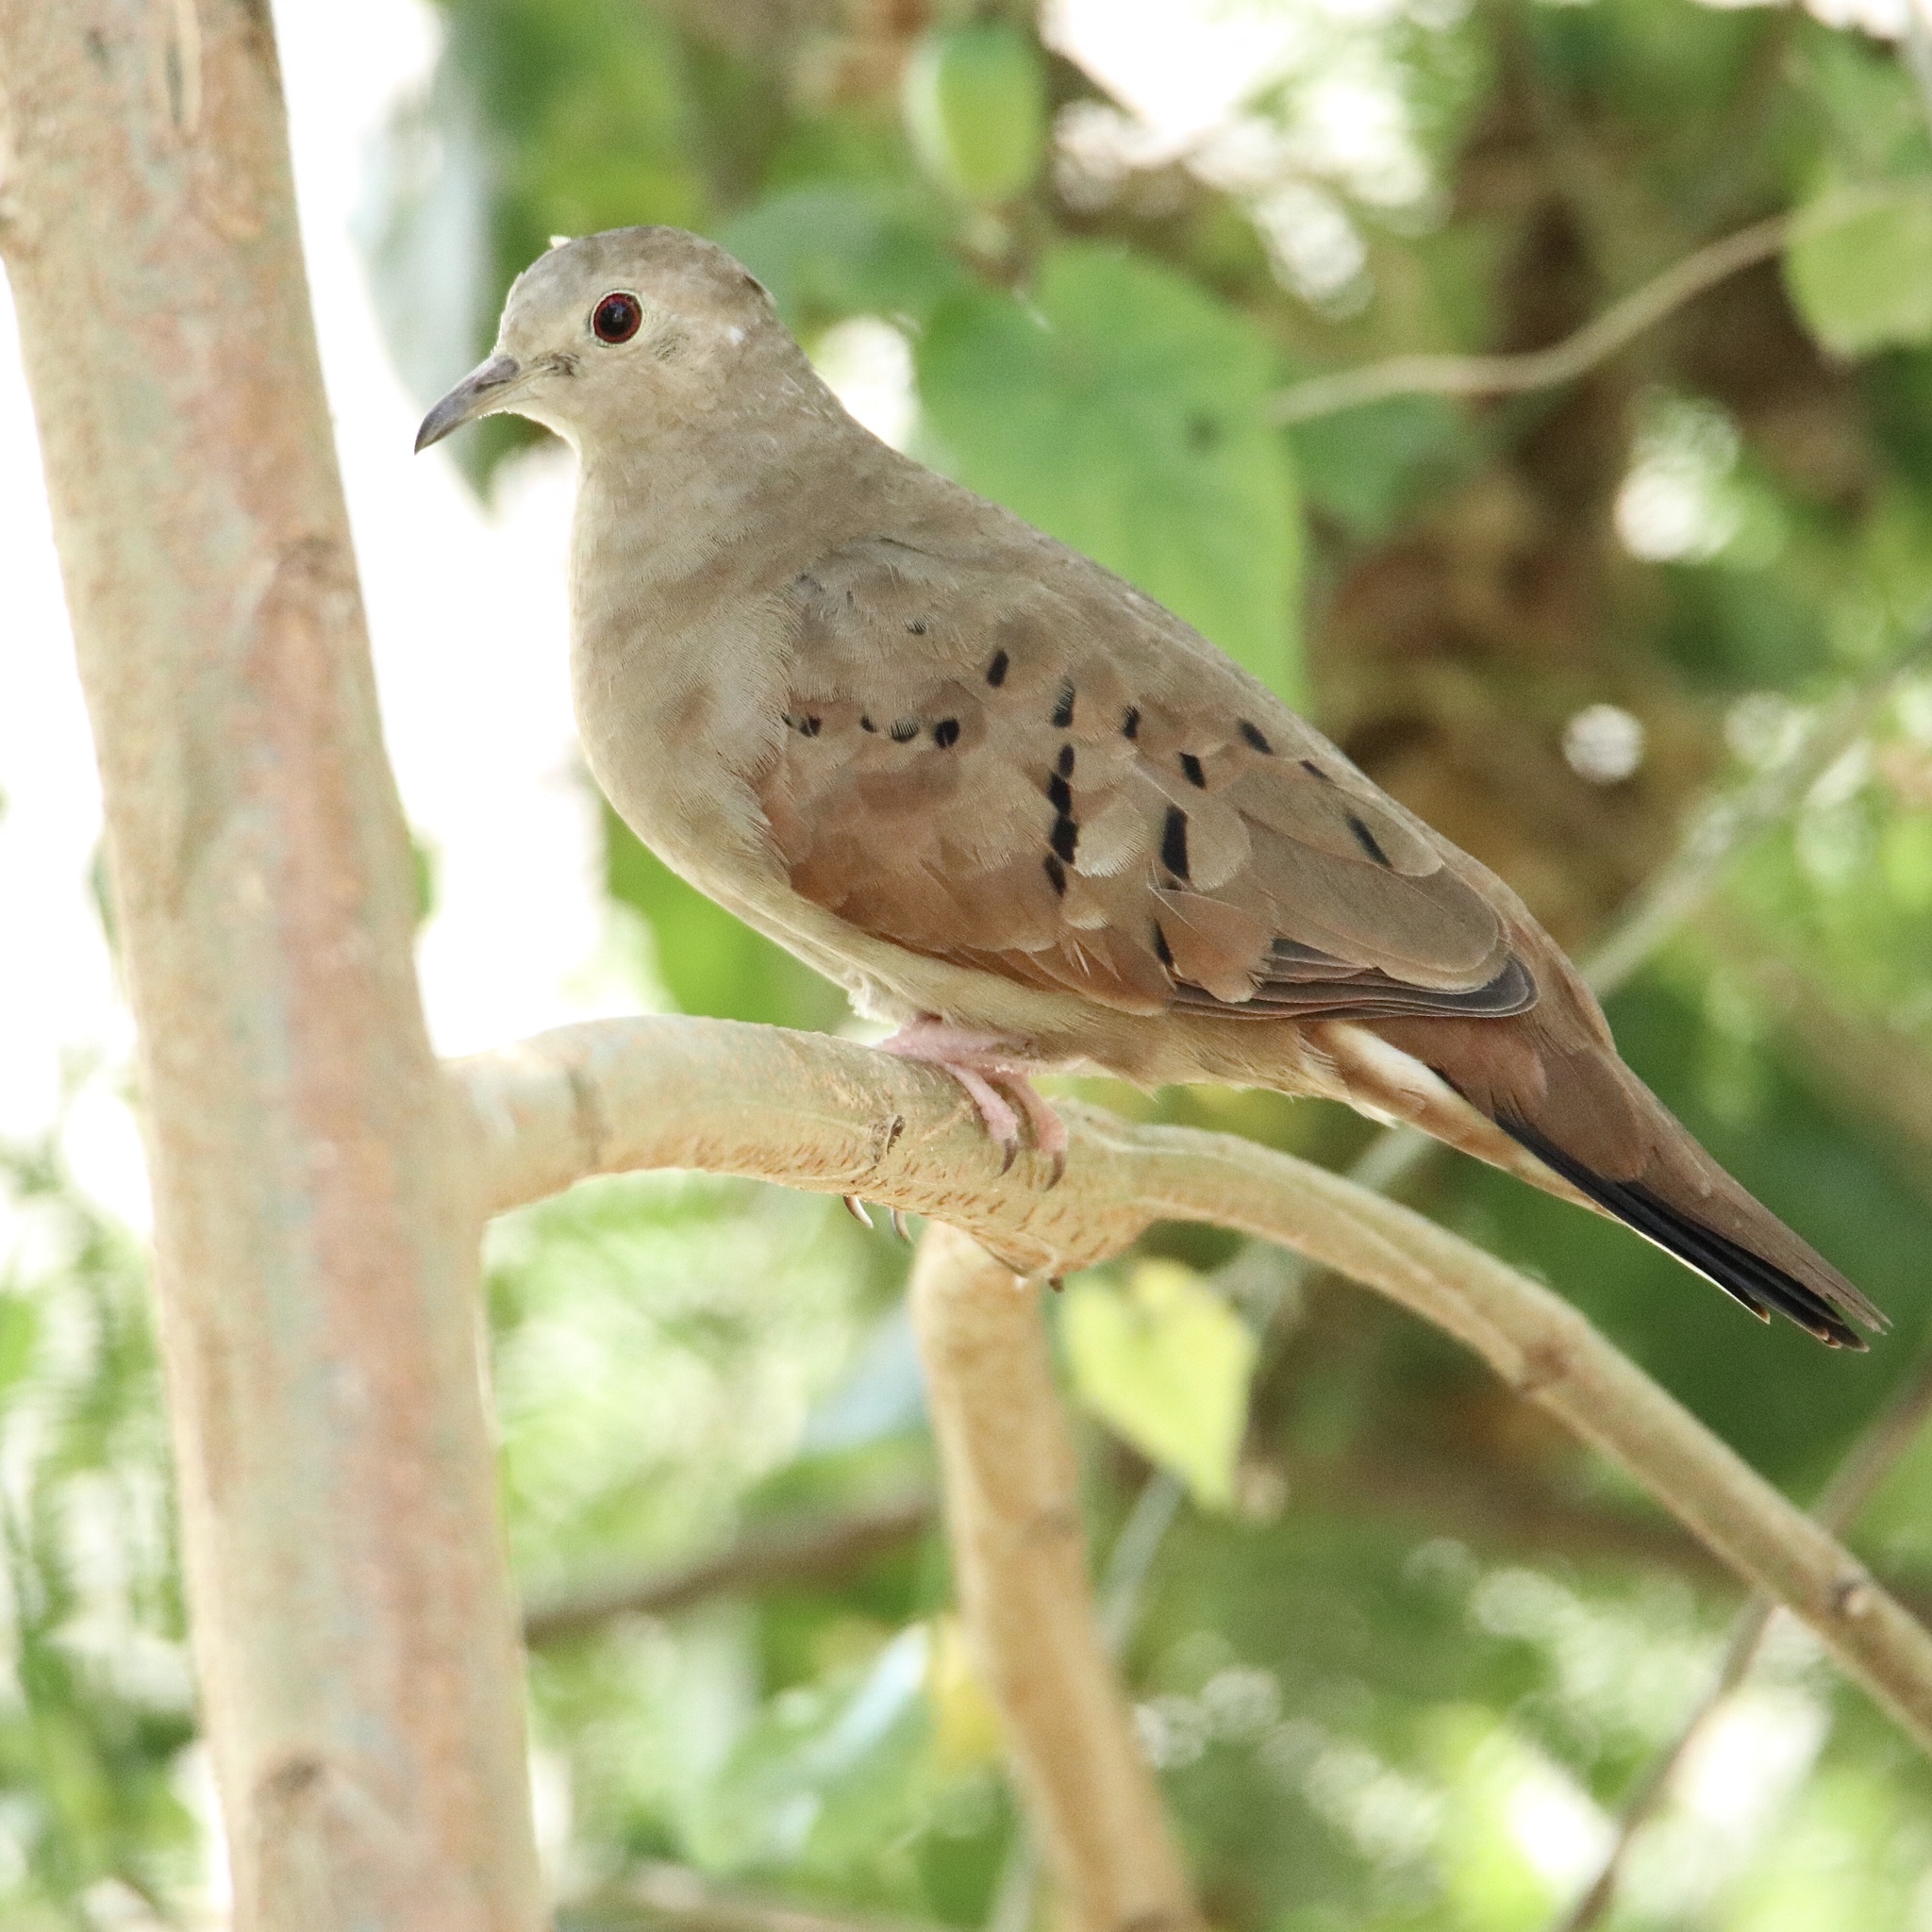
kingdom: Animalia
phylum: Chordata
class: Aves
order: Columbiformes
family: Columbidae
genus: Columbina
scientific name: Columbina talpacoti
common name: Ruddy ground dove
